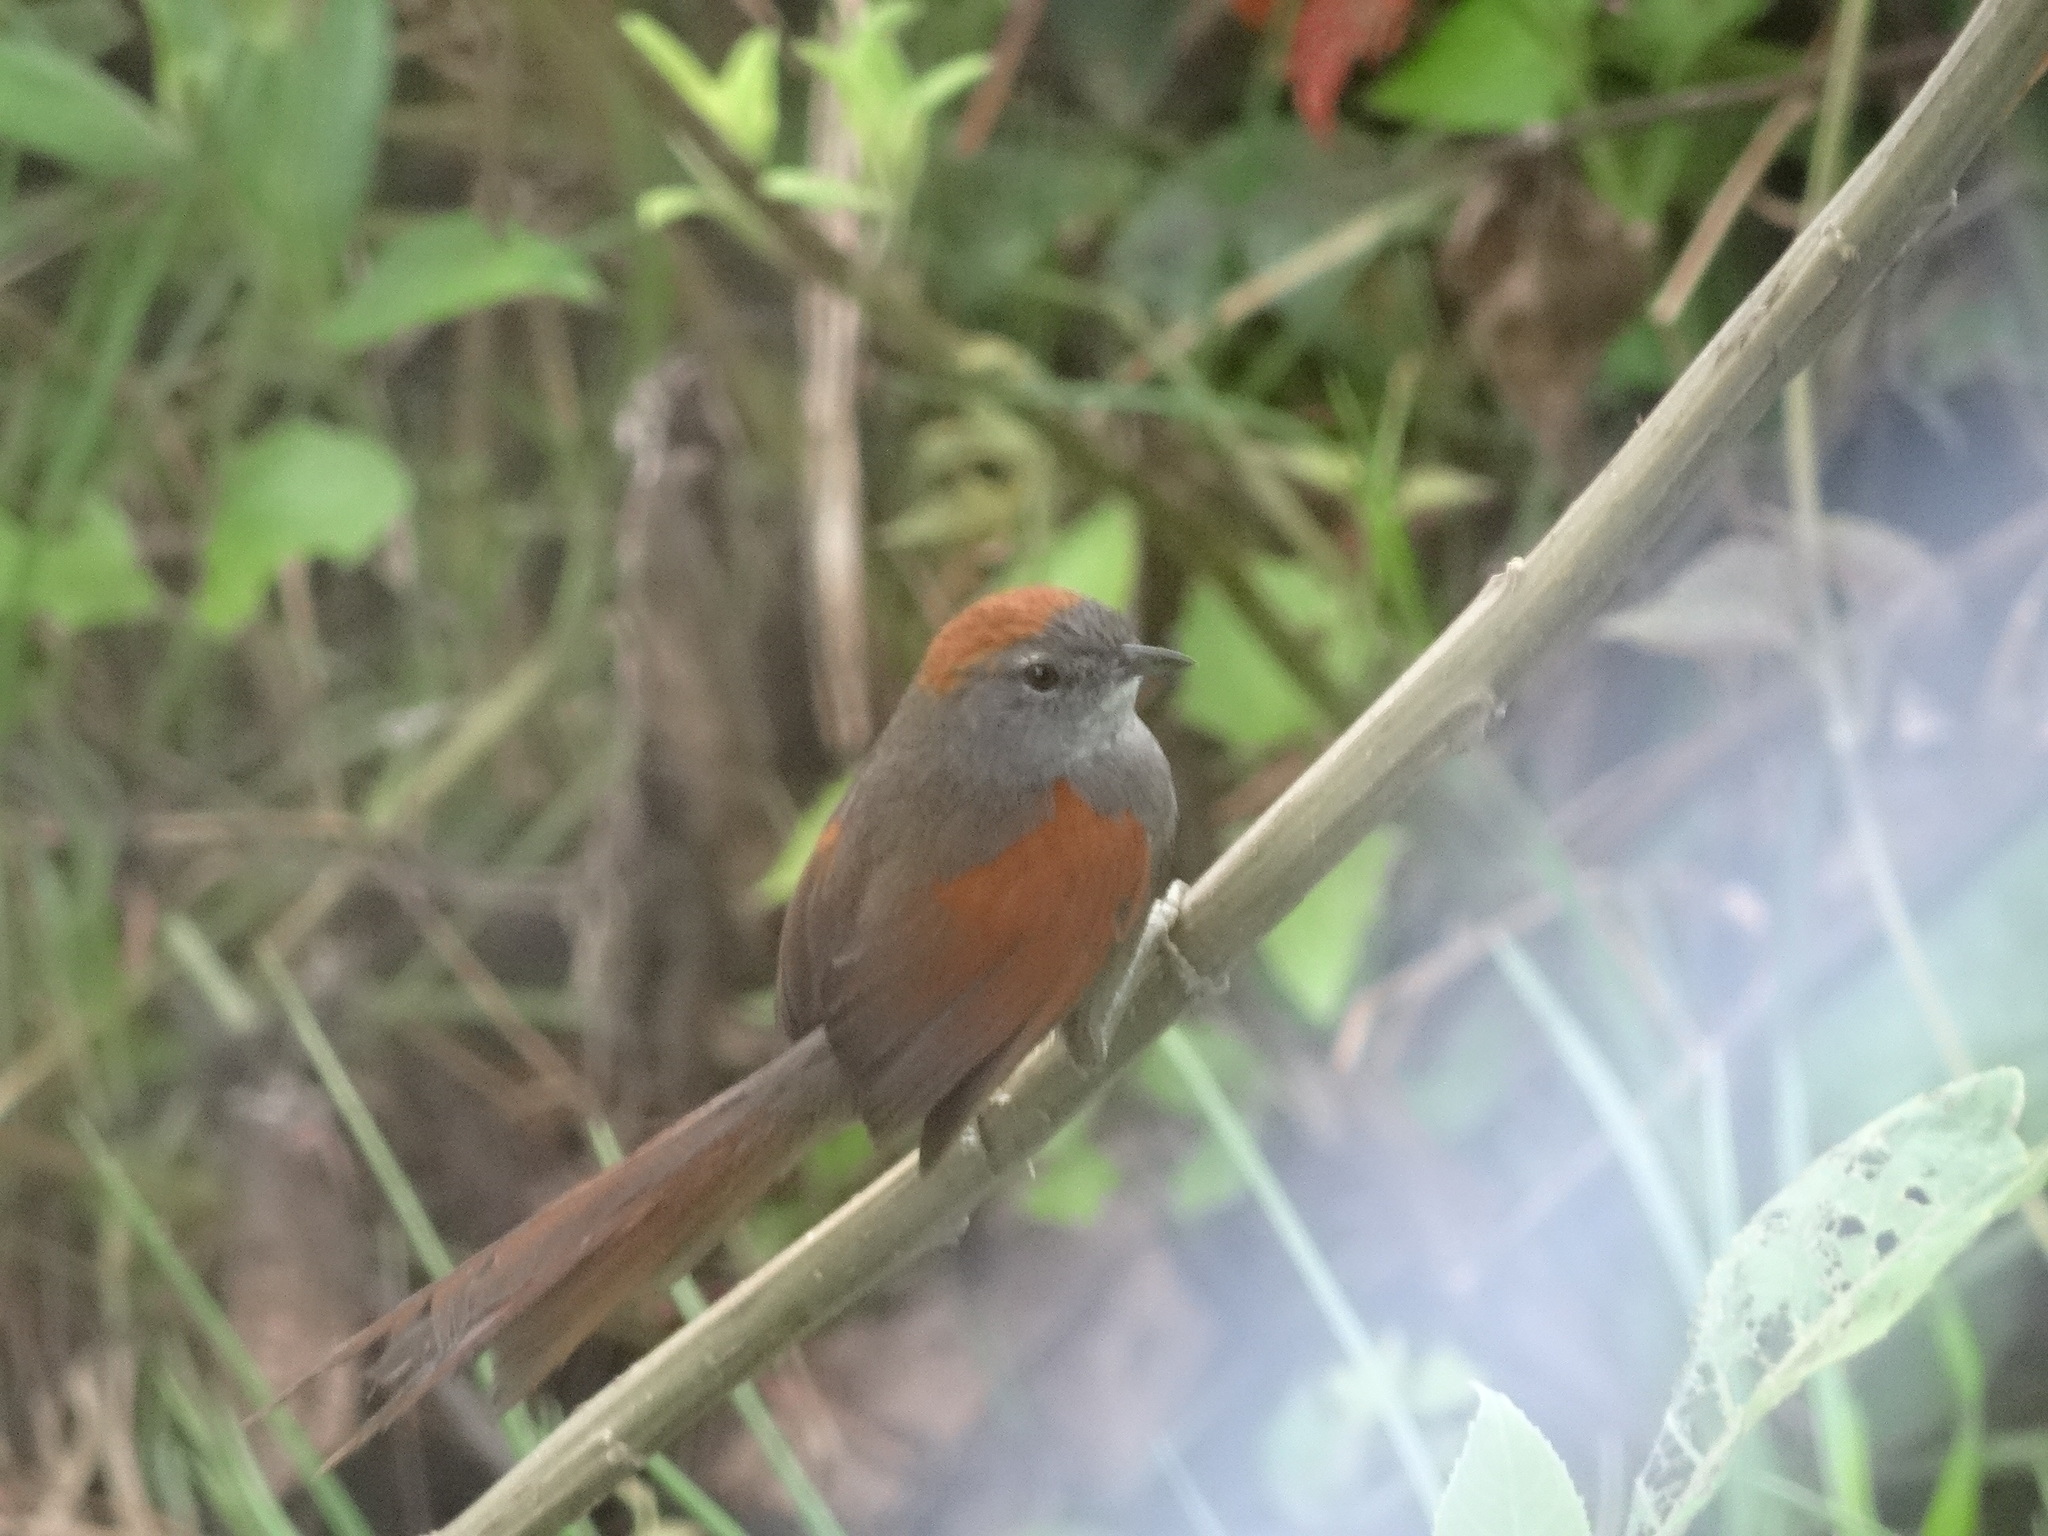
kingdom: Animalia
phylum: Chordata
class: Aves
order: Passeriformes
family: Furnariidae
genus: Synallaxis
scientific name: Synallaxis azarae
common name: Azara's spinetail
